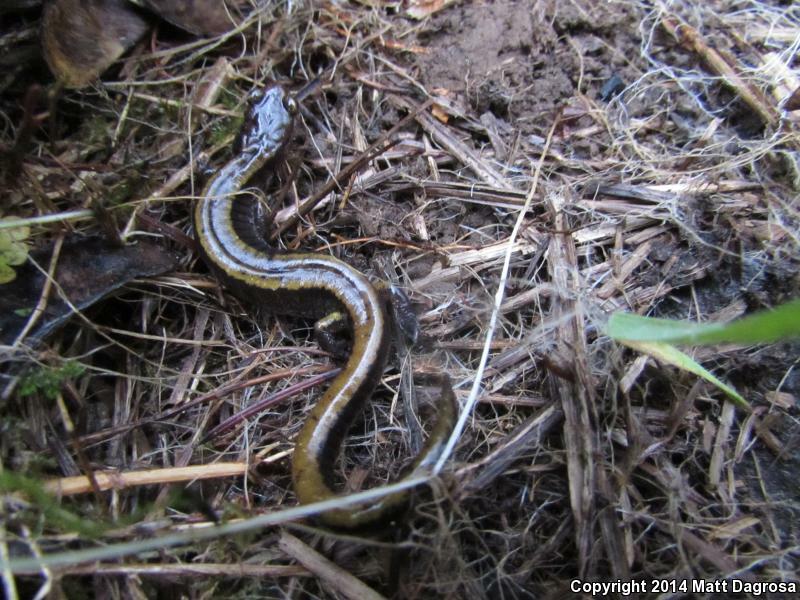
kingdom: Animalia
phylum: Chordata
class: Amphibia
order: Caudata
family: Plethodontidae
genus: Plethodon
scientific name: Plethodon vehiculum
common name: Western red-backed salamander
